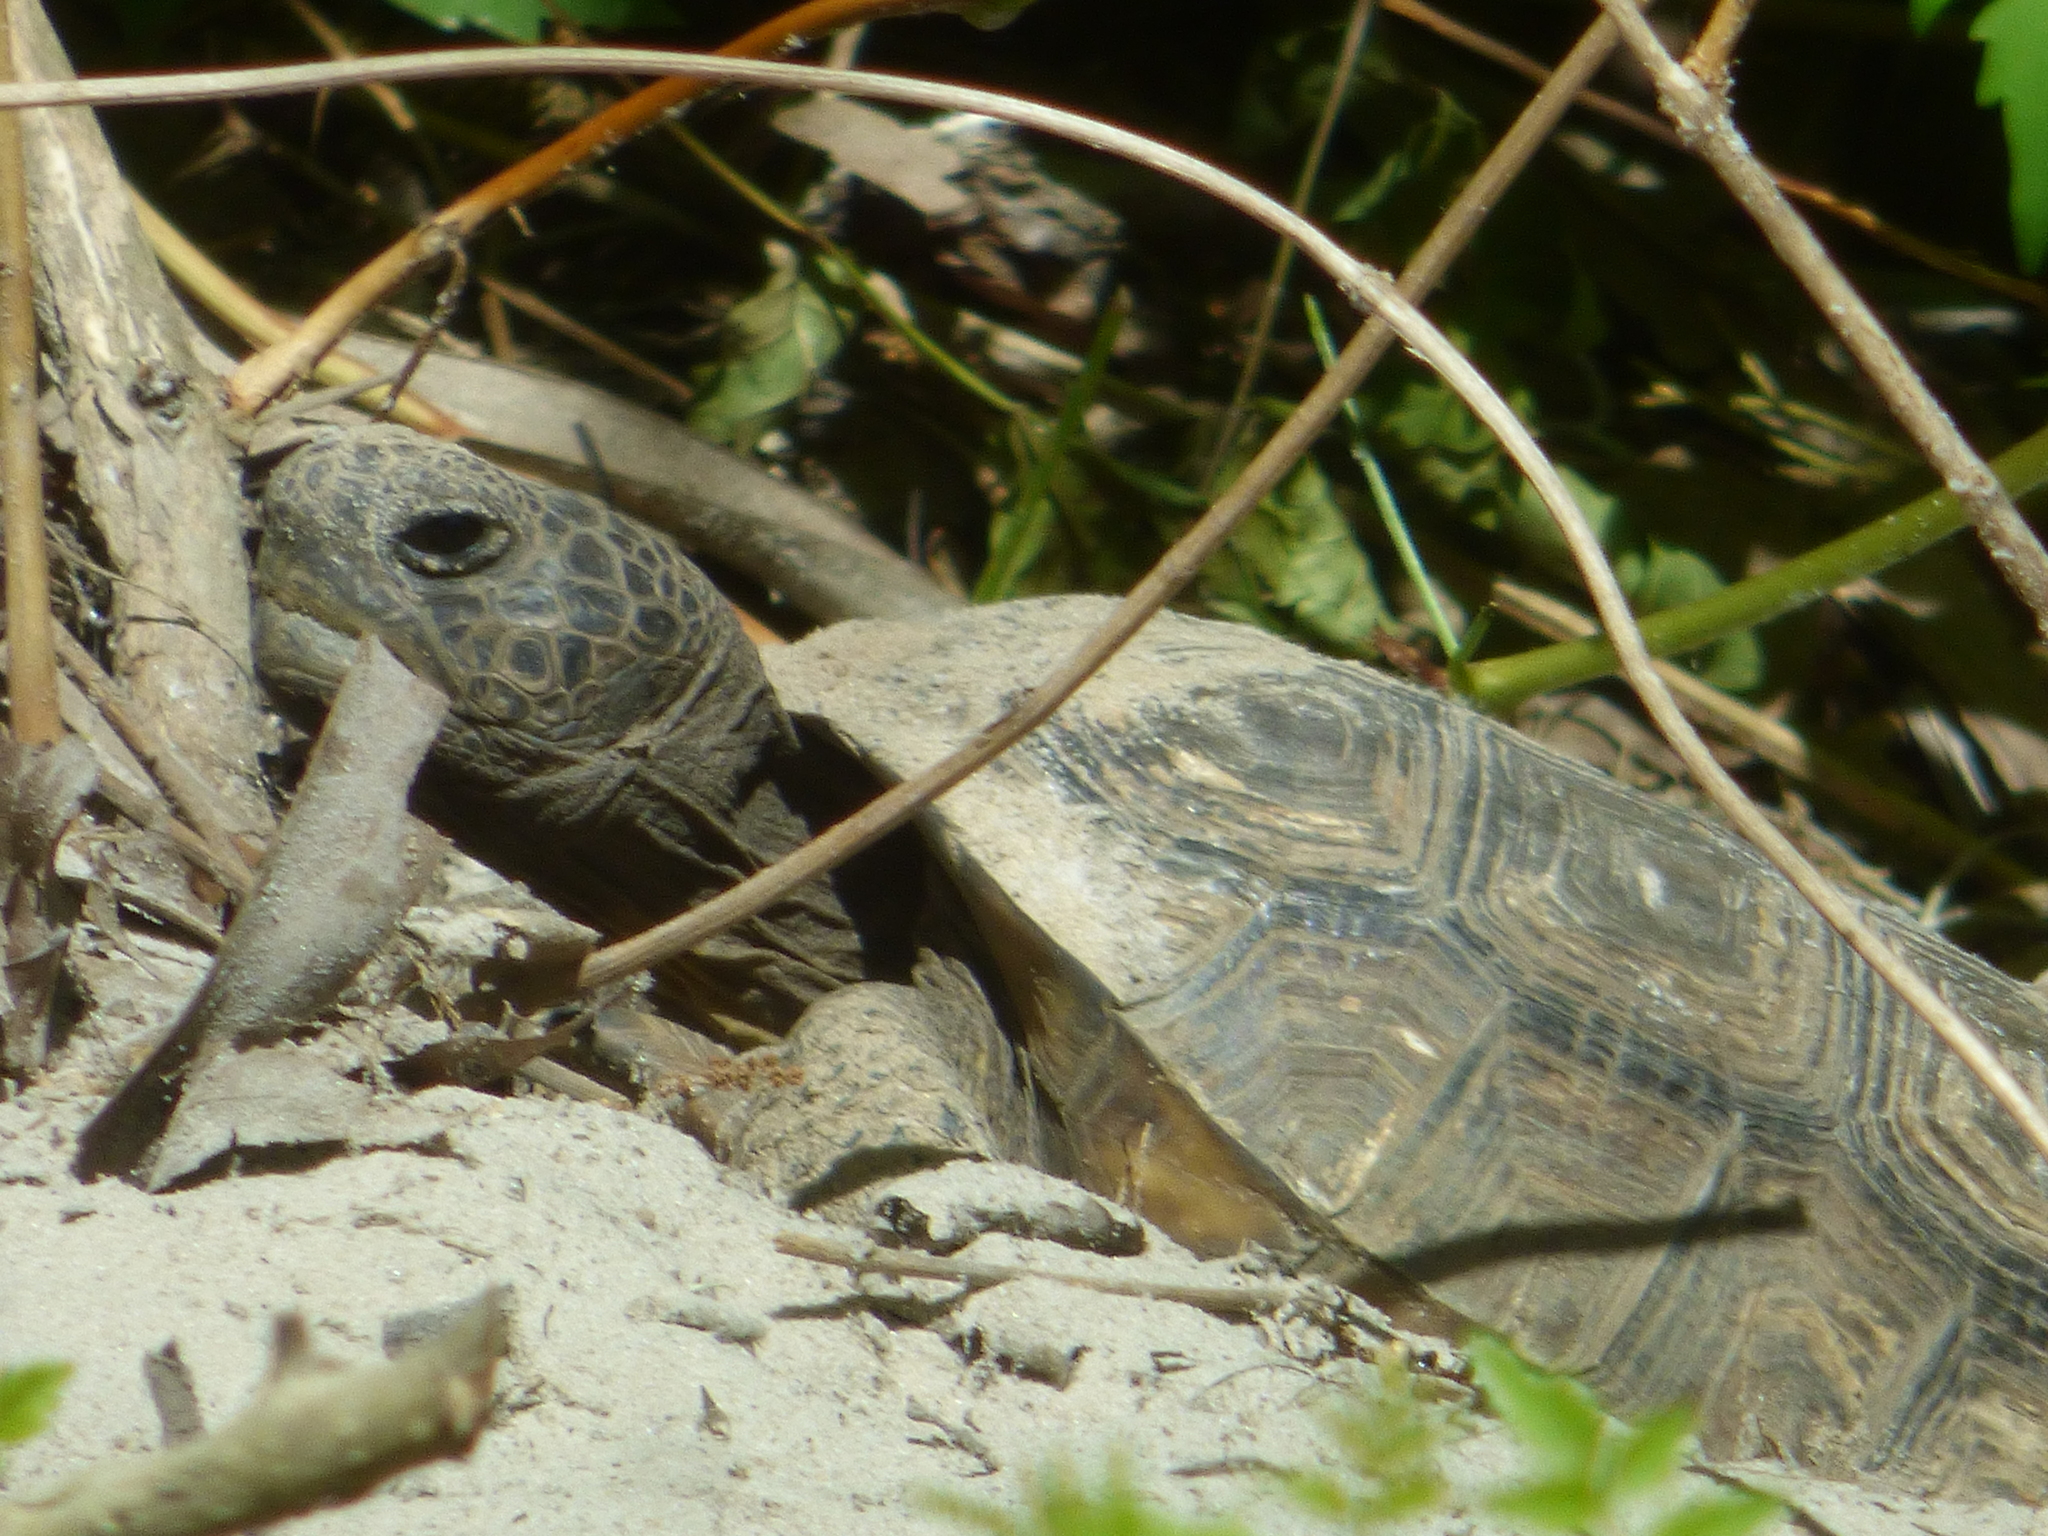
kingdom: Animalia
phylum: Chordata
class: Testudines
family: Testudinidae
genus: Gopherus
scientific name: Gopherus polyphemus
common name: Florida gopher tortoise
